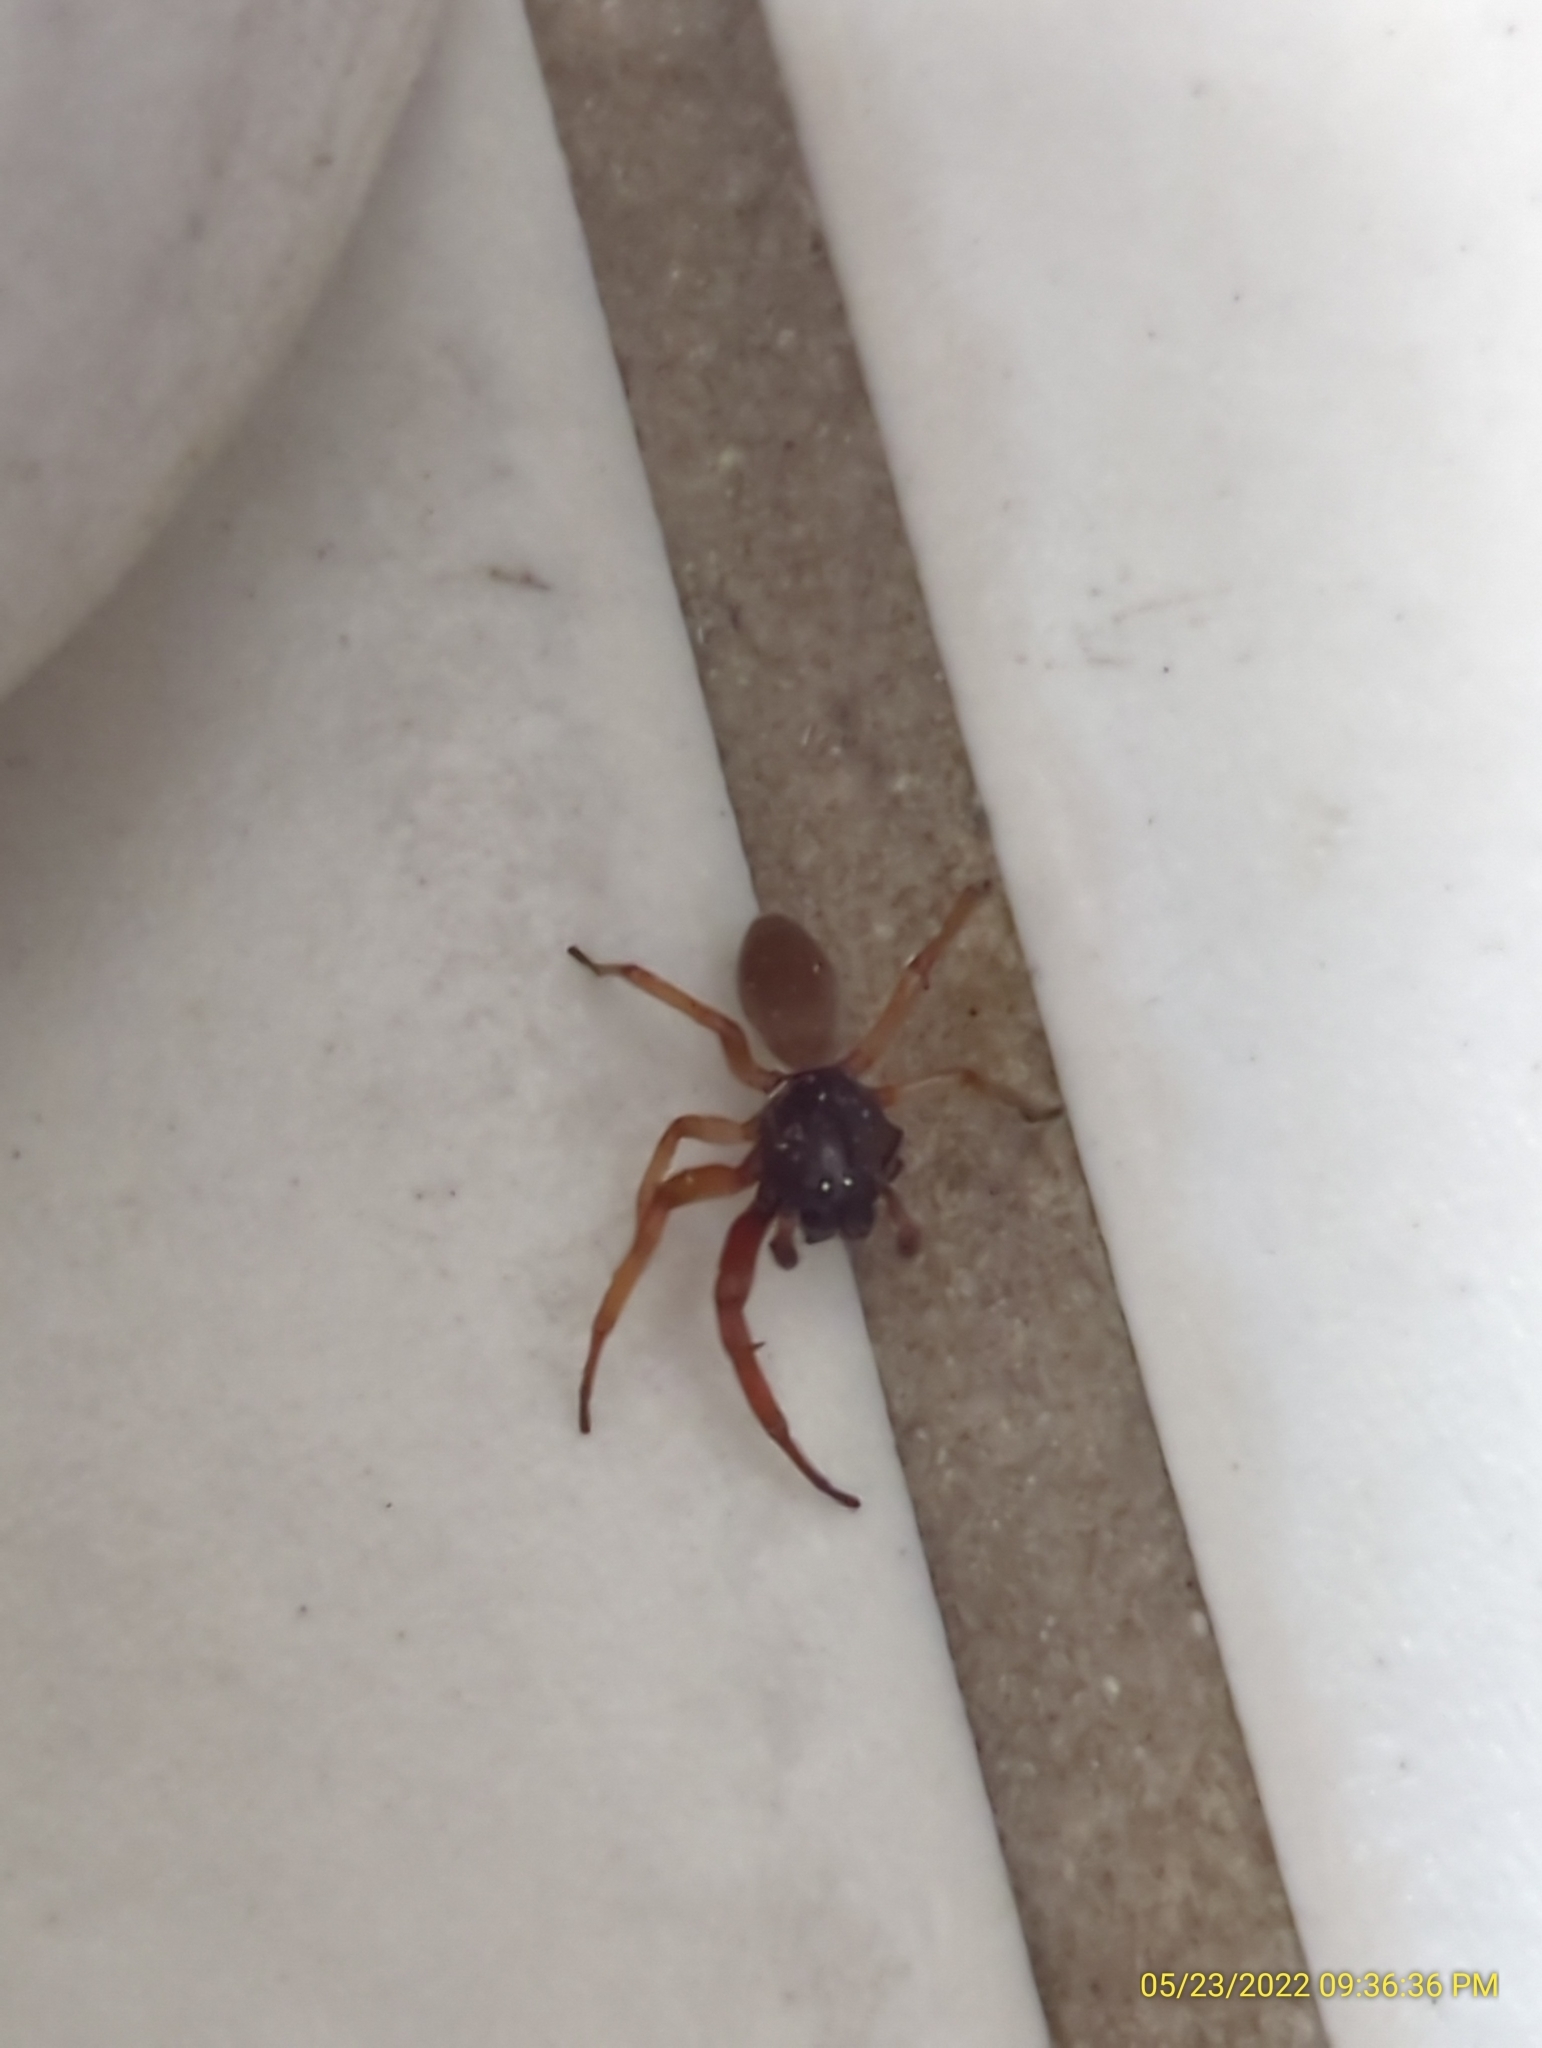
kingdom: Animalia
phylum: Arthropoda
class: Arachnida
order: Araneae
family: Trachelidae
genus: Trachelas
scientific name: Trachelas
